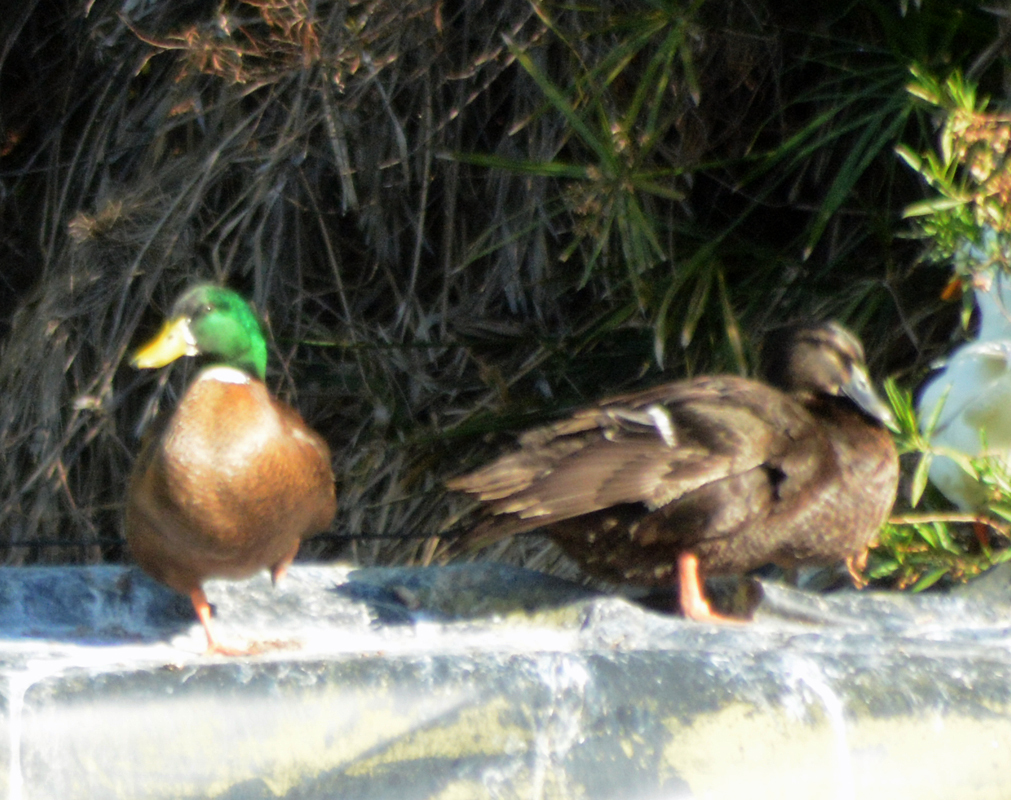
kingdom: Animalia
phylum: Chordata
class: Aves
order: Anseriformes
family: Anatidae
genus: Anas
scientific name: Anas platyrhynchos
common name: Mallard
